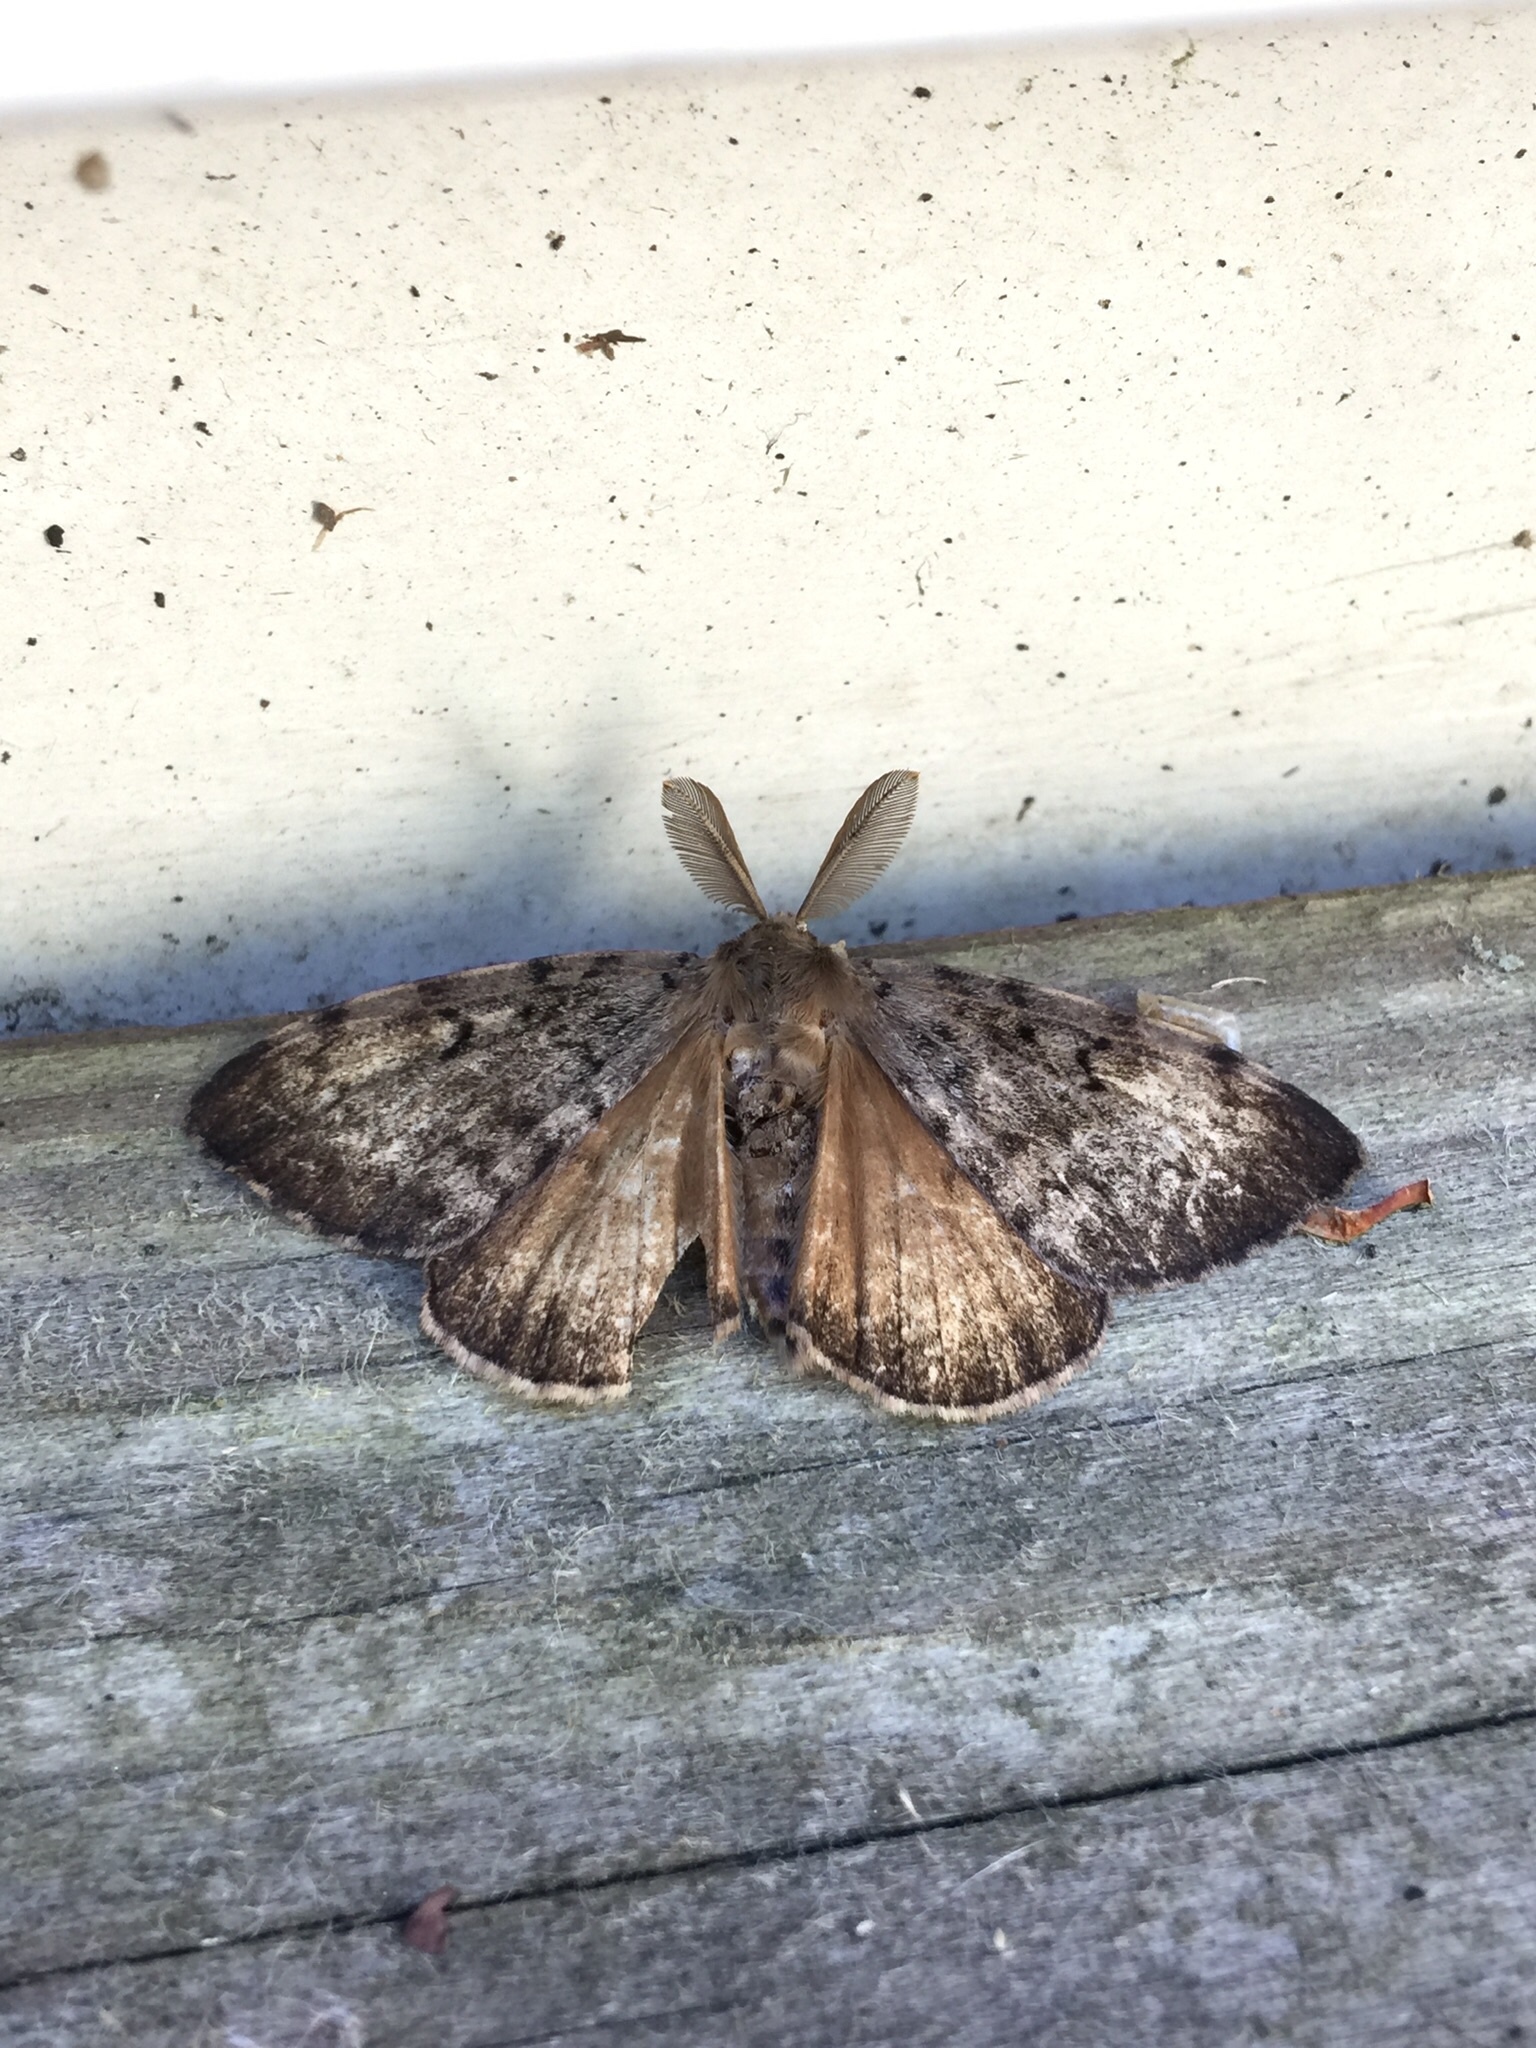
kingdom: Animalia
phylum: Arthropoda
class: Insecta
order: Lepidoptera
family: Erebidae
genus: Lymantria
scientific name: Lymantria dispar
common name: Gypsy moth
